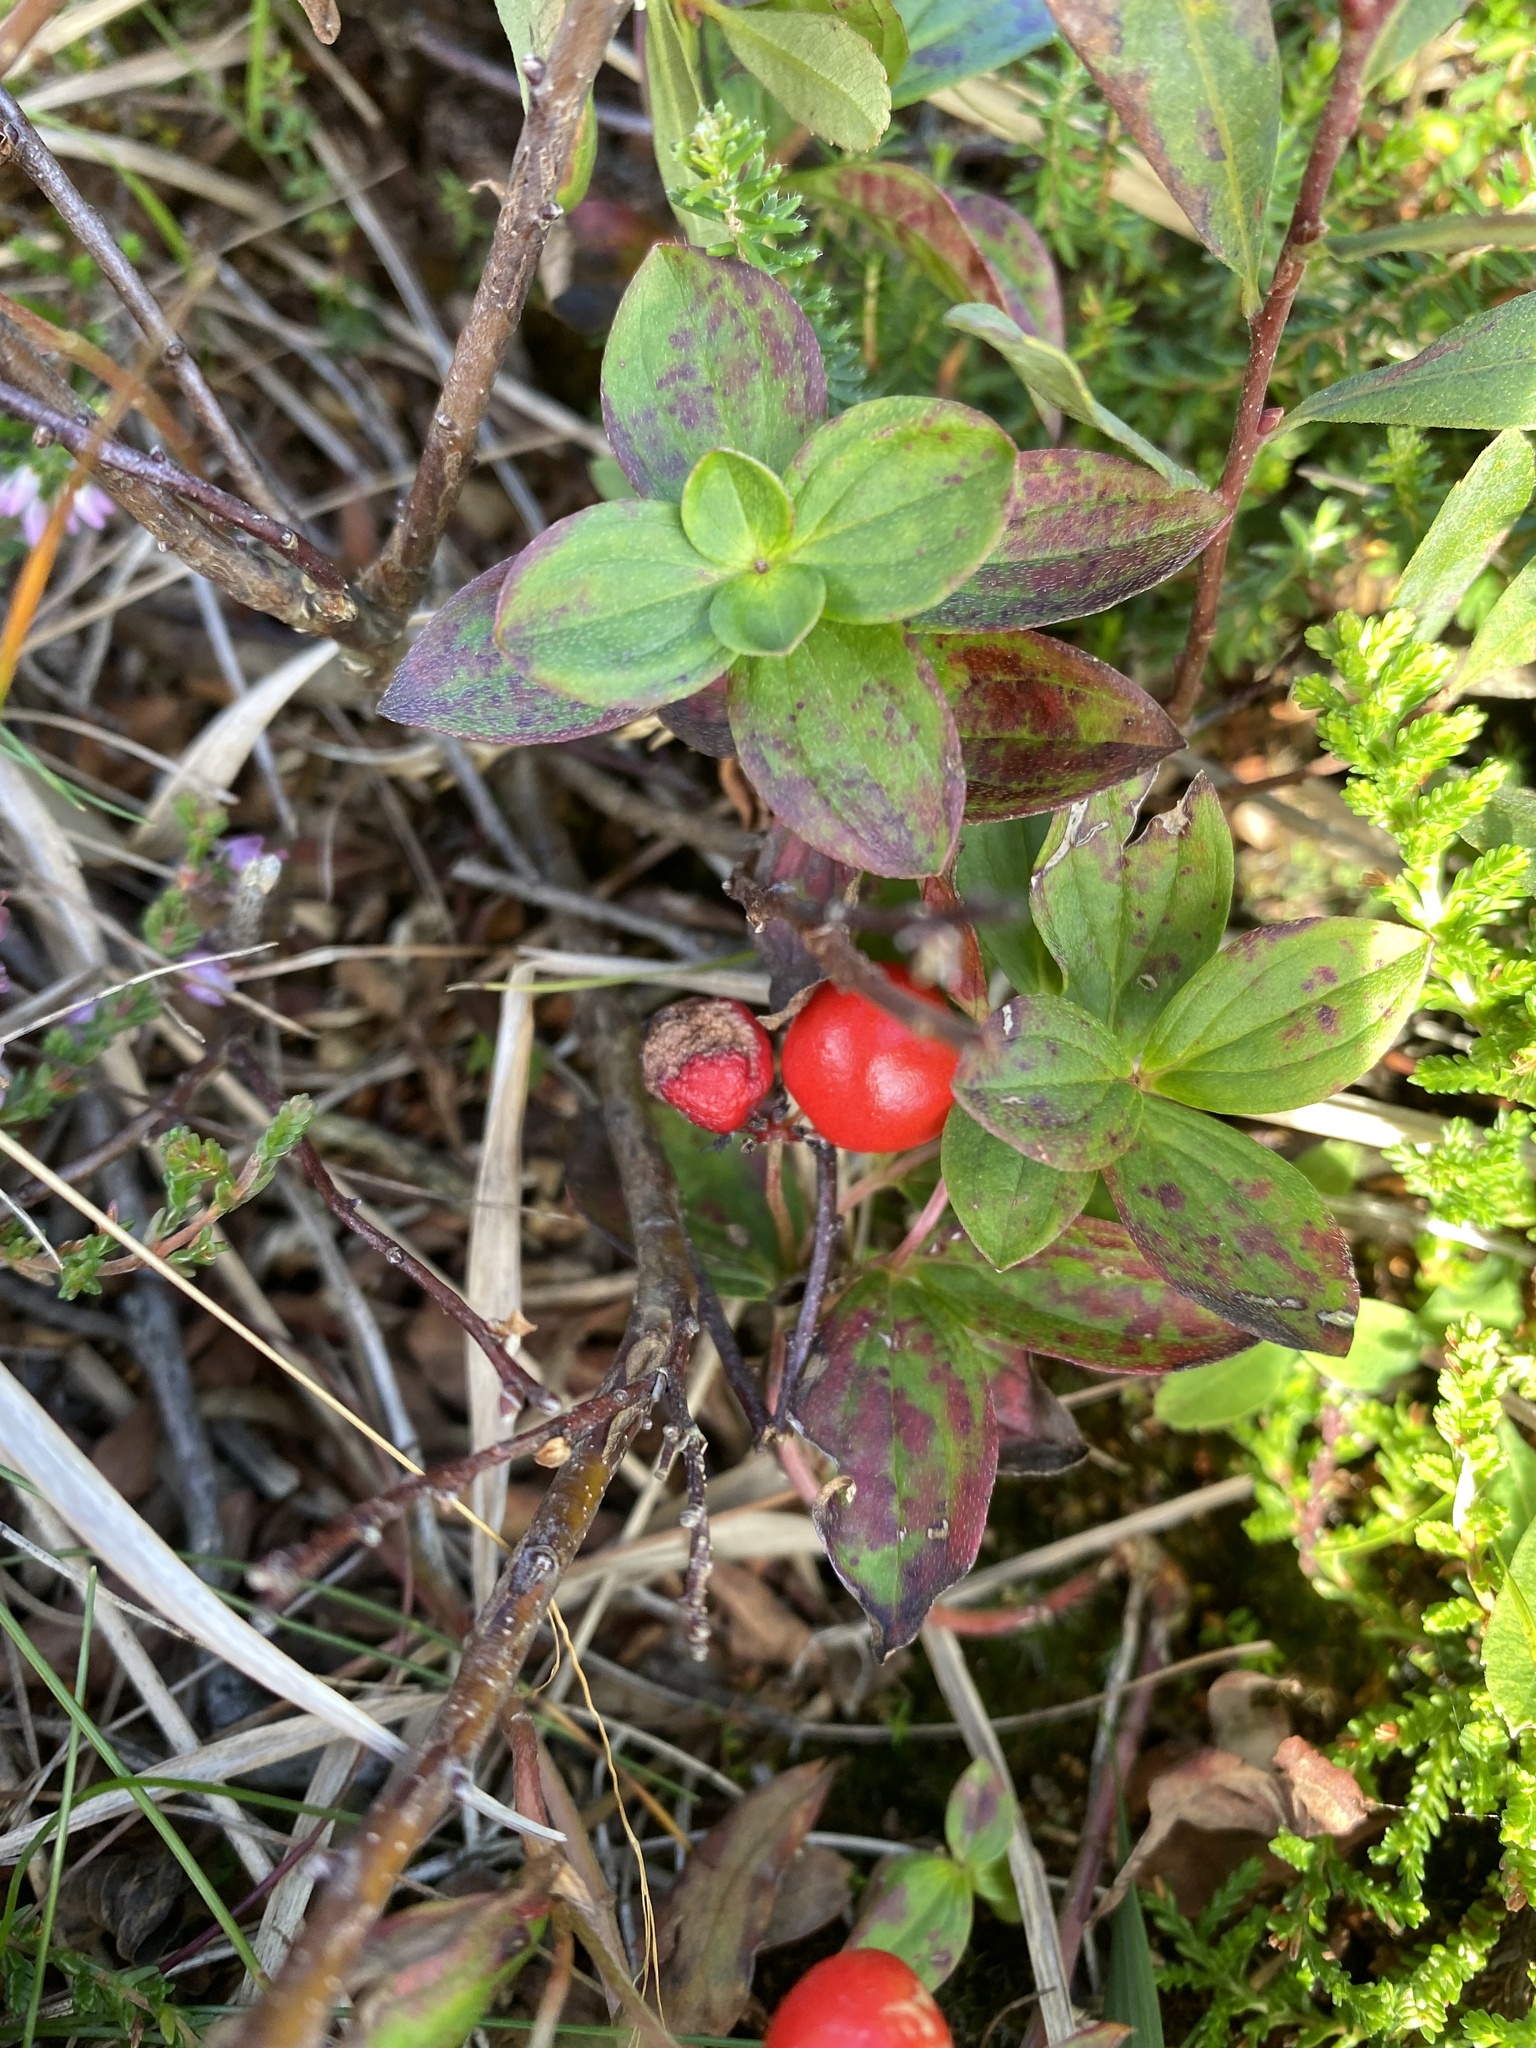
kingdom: Plantae
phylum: Tracheophyta
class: Magnoliopsida
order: Cornales
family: Cornaceae
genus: Cornus
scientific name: Cornus suecica
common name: Dwarf cornel
